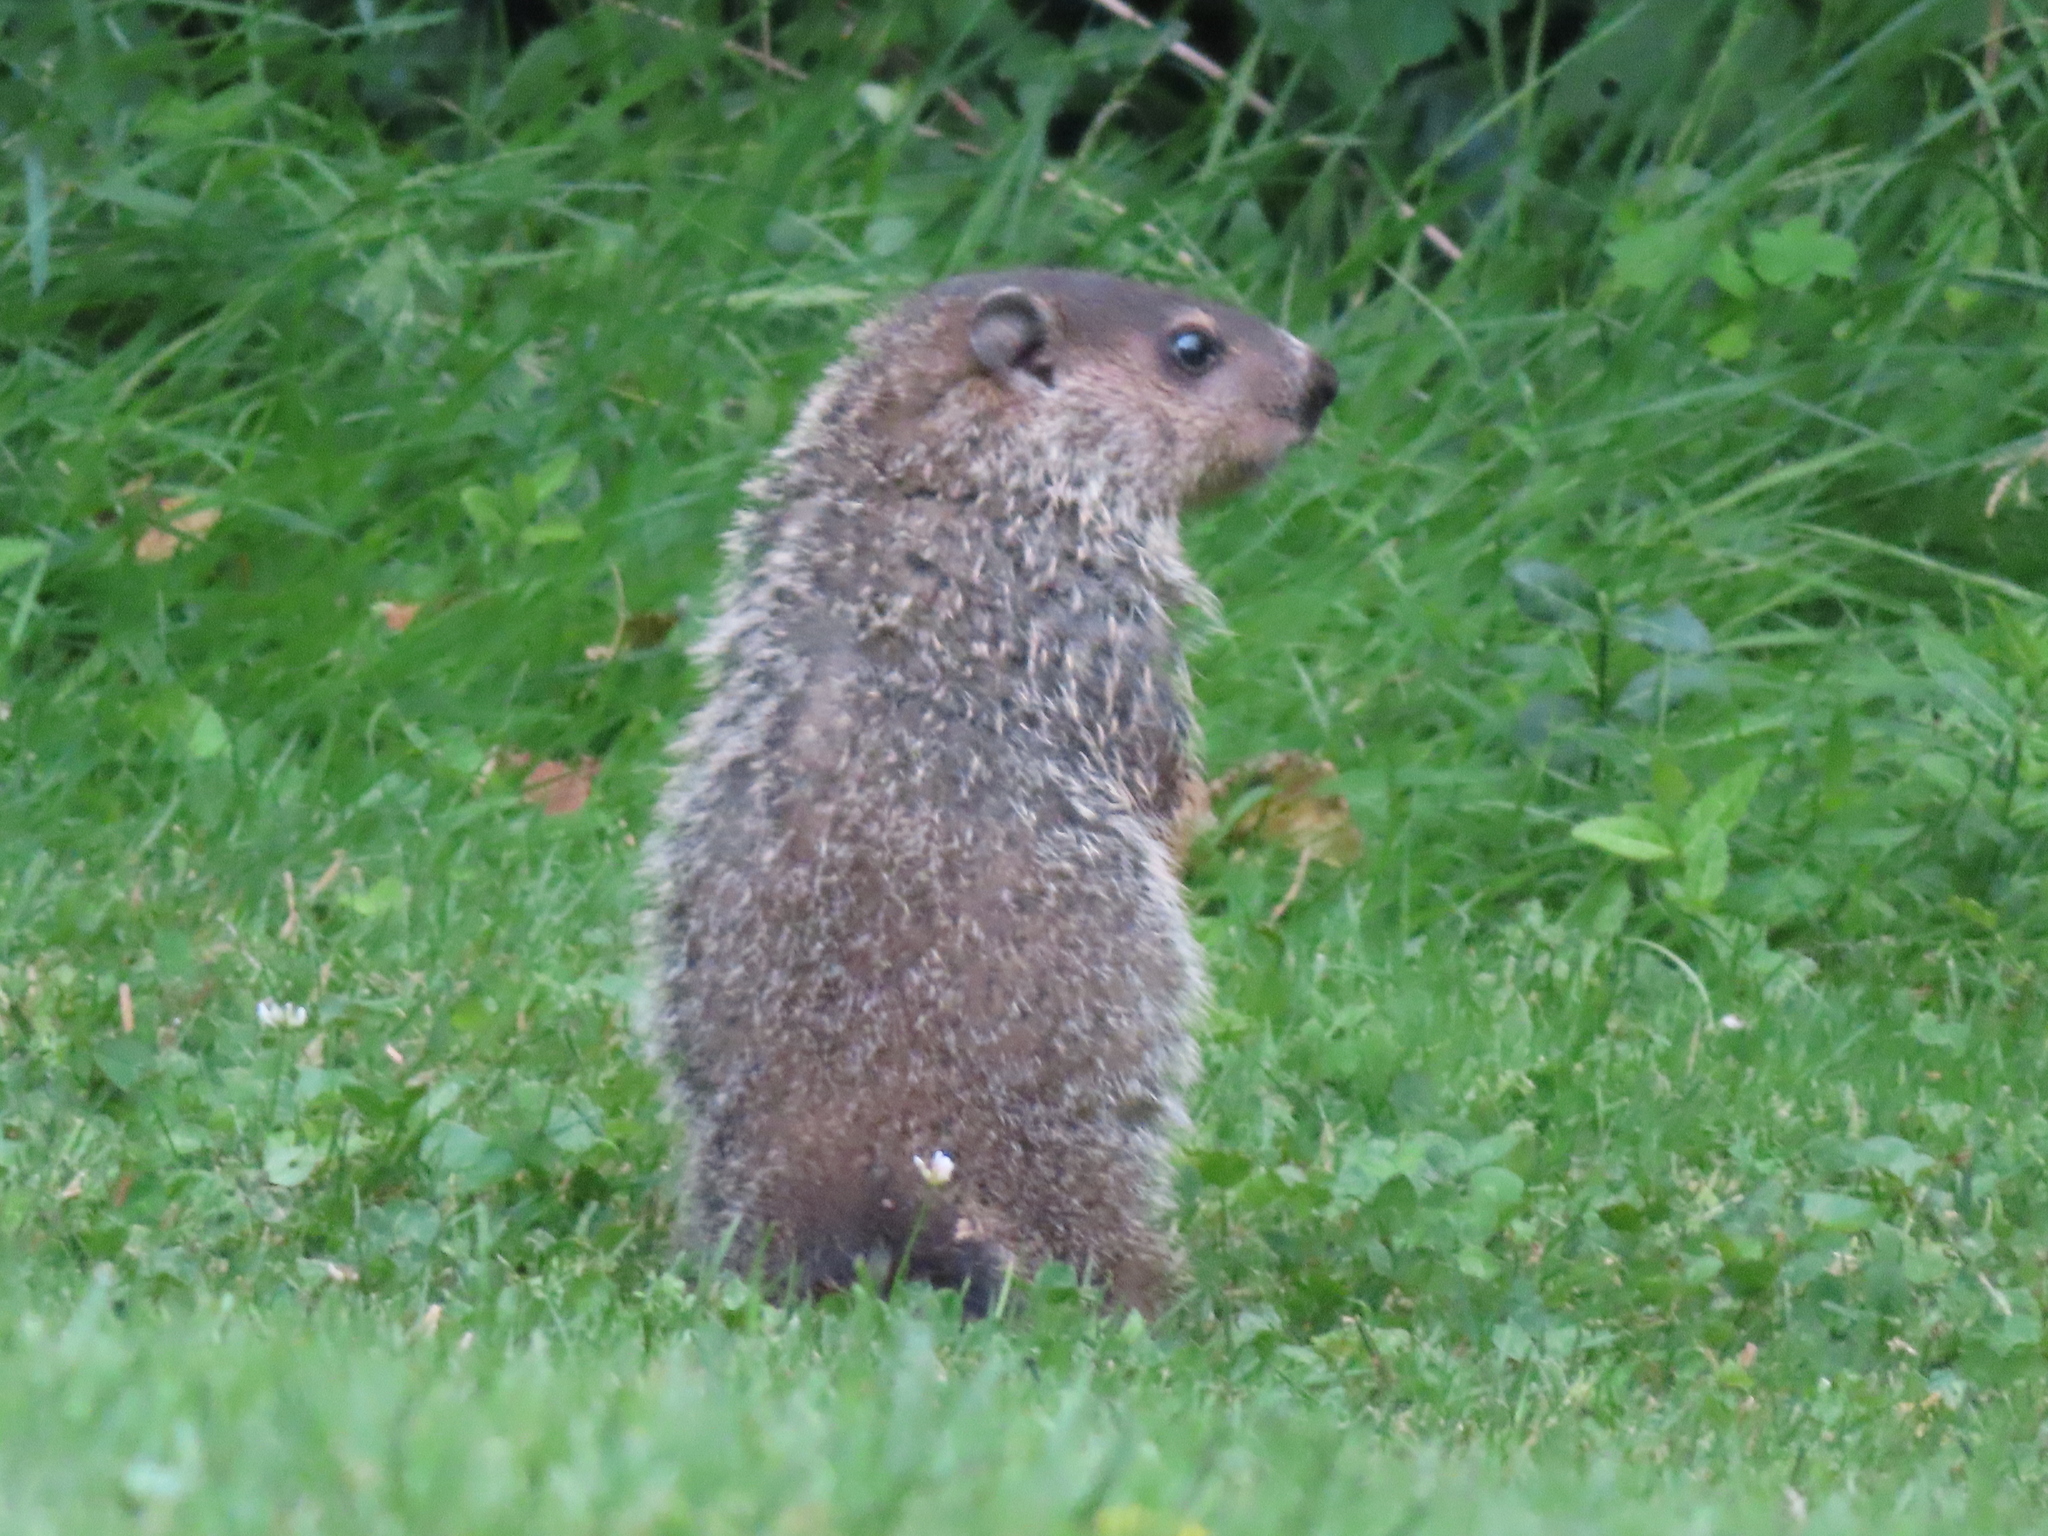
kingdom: Animalia
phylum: Chordata
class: Mammalia
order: Rodentia
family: Sciuridae
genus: Marmota
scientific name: Marmota monax
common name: Groundhog
